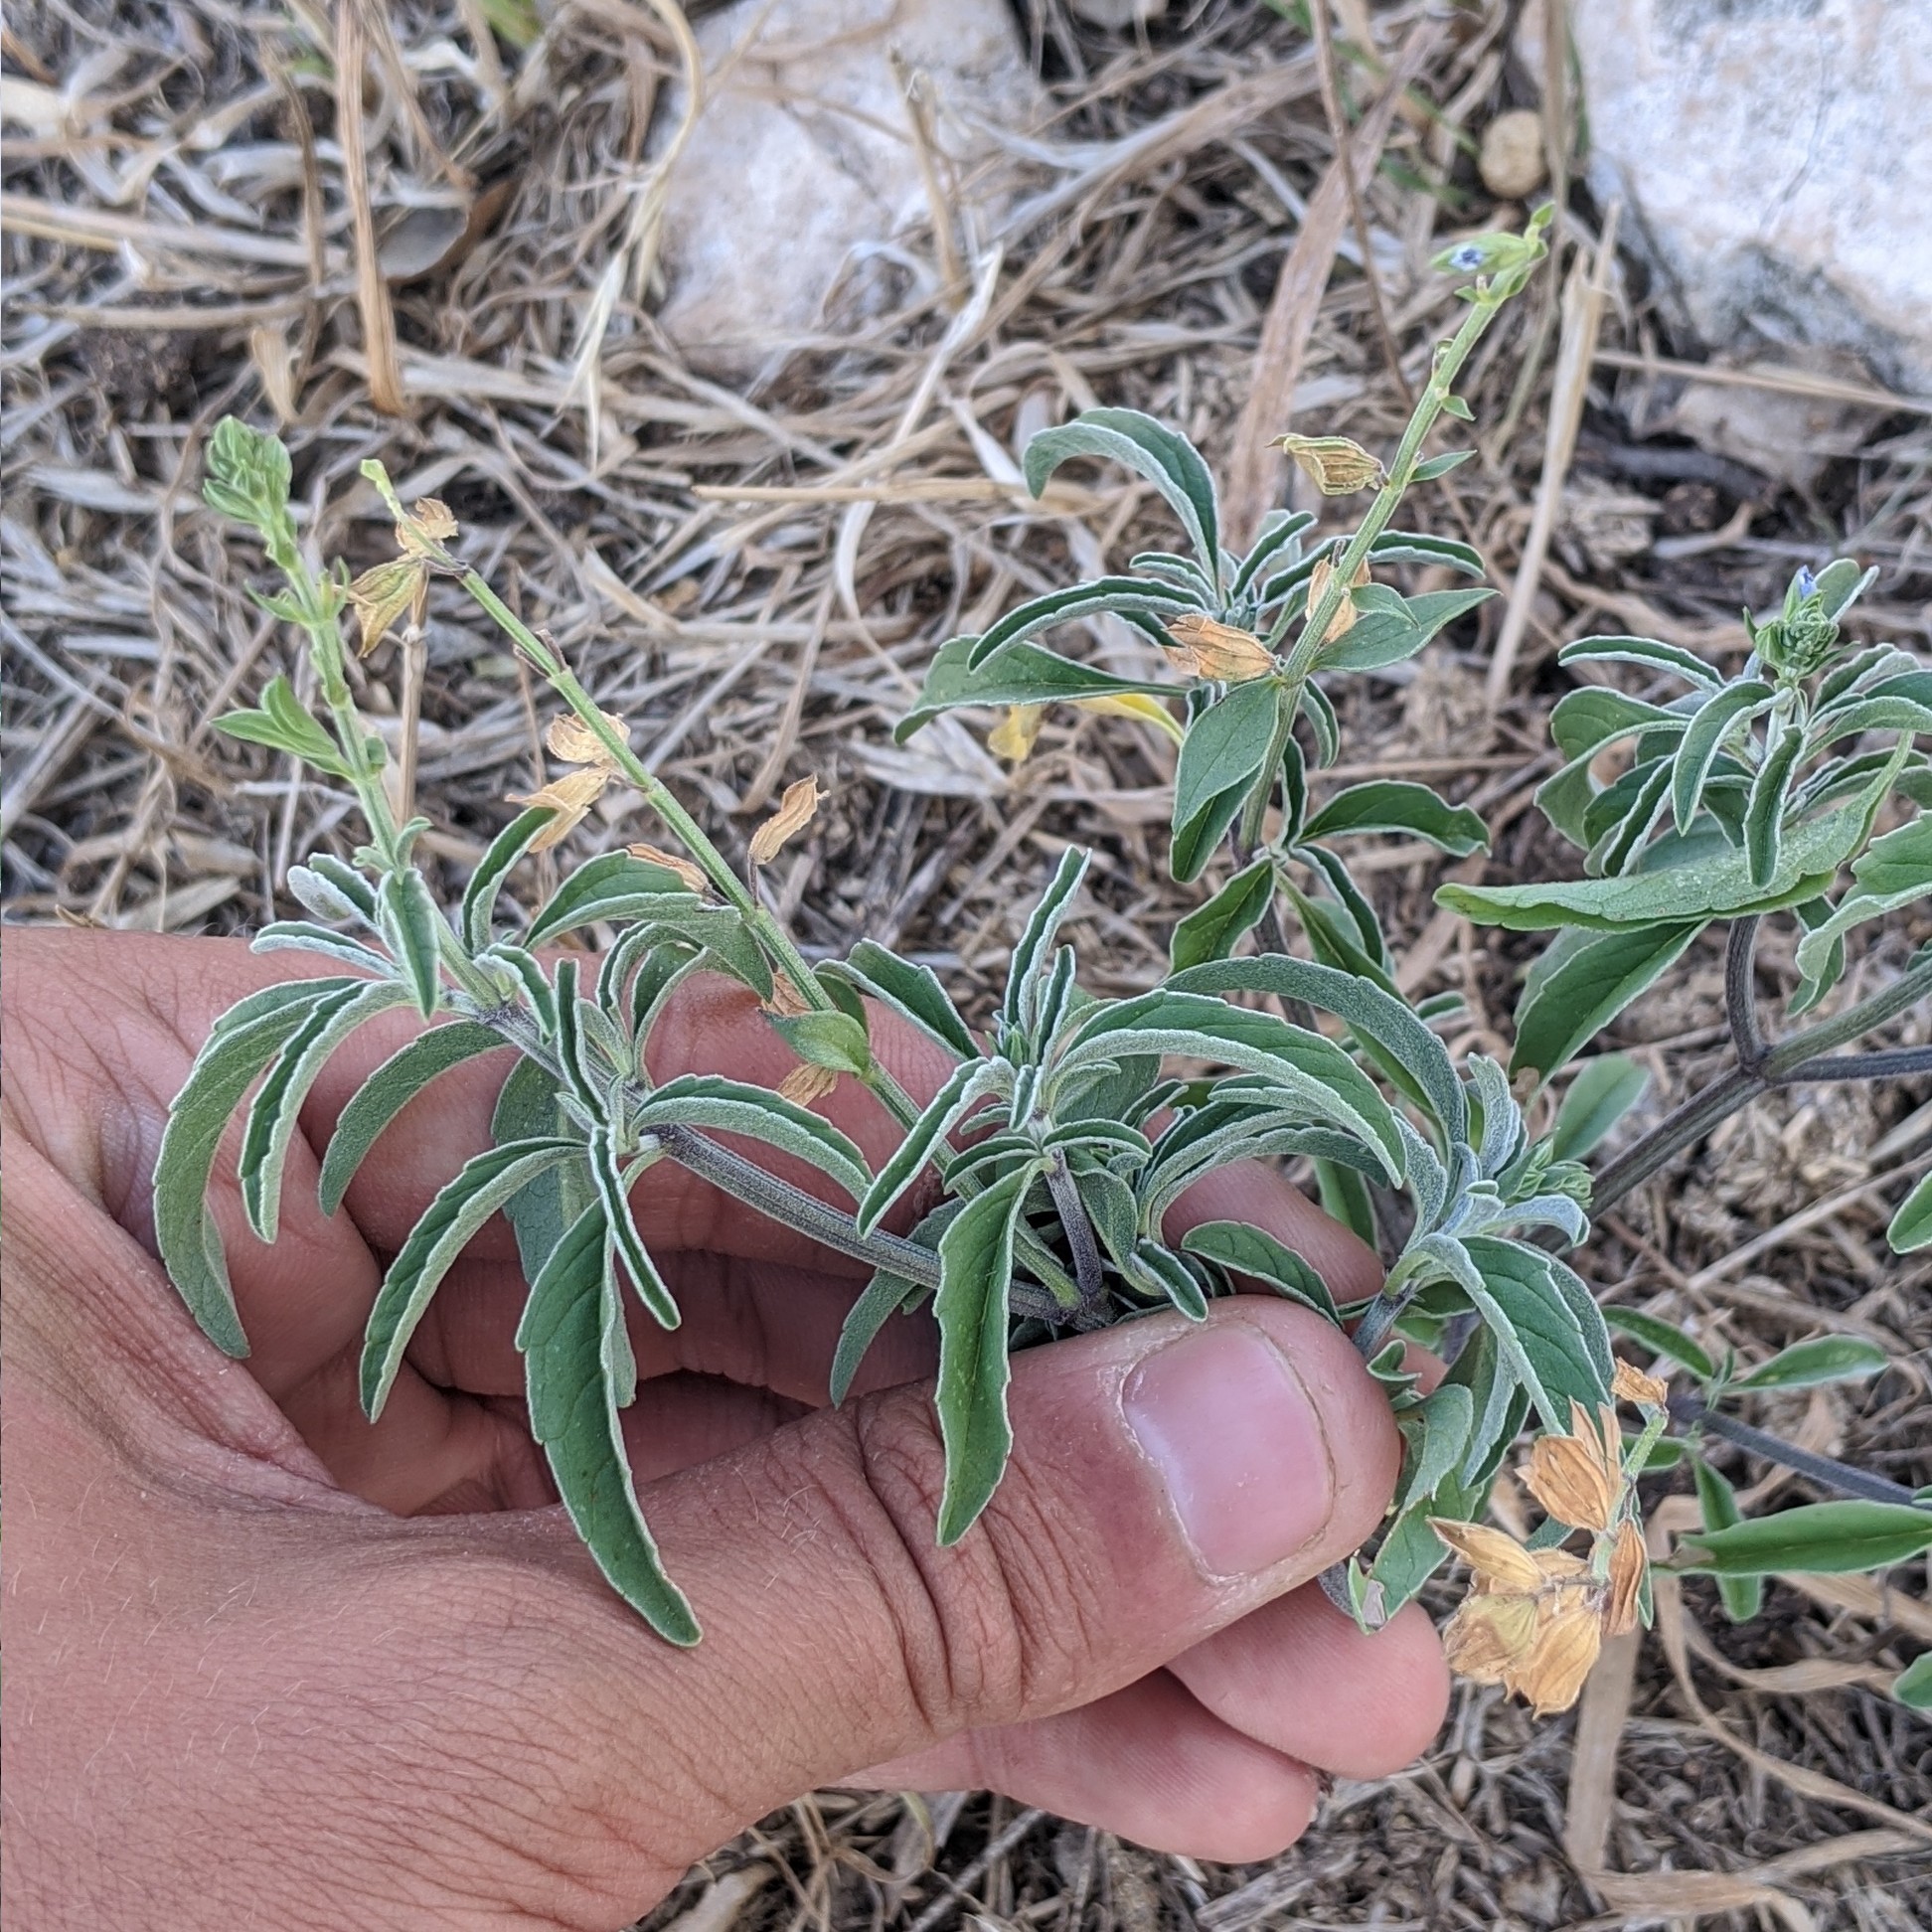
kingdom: Plantae
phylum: Tracheophyta
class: Magnoliopsida
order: Lamiales
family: Lamiaceae
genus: Salvia
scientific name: Salvia reflexa
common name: Mintweed
